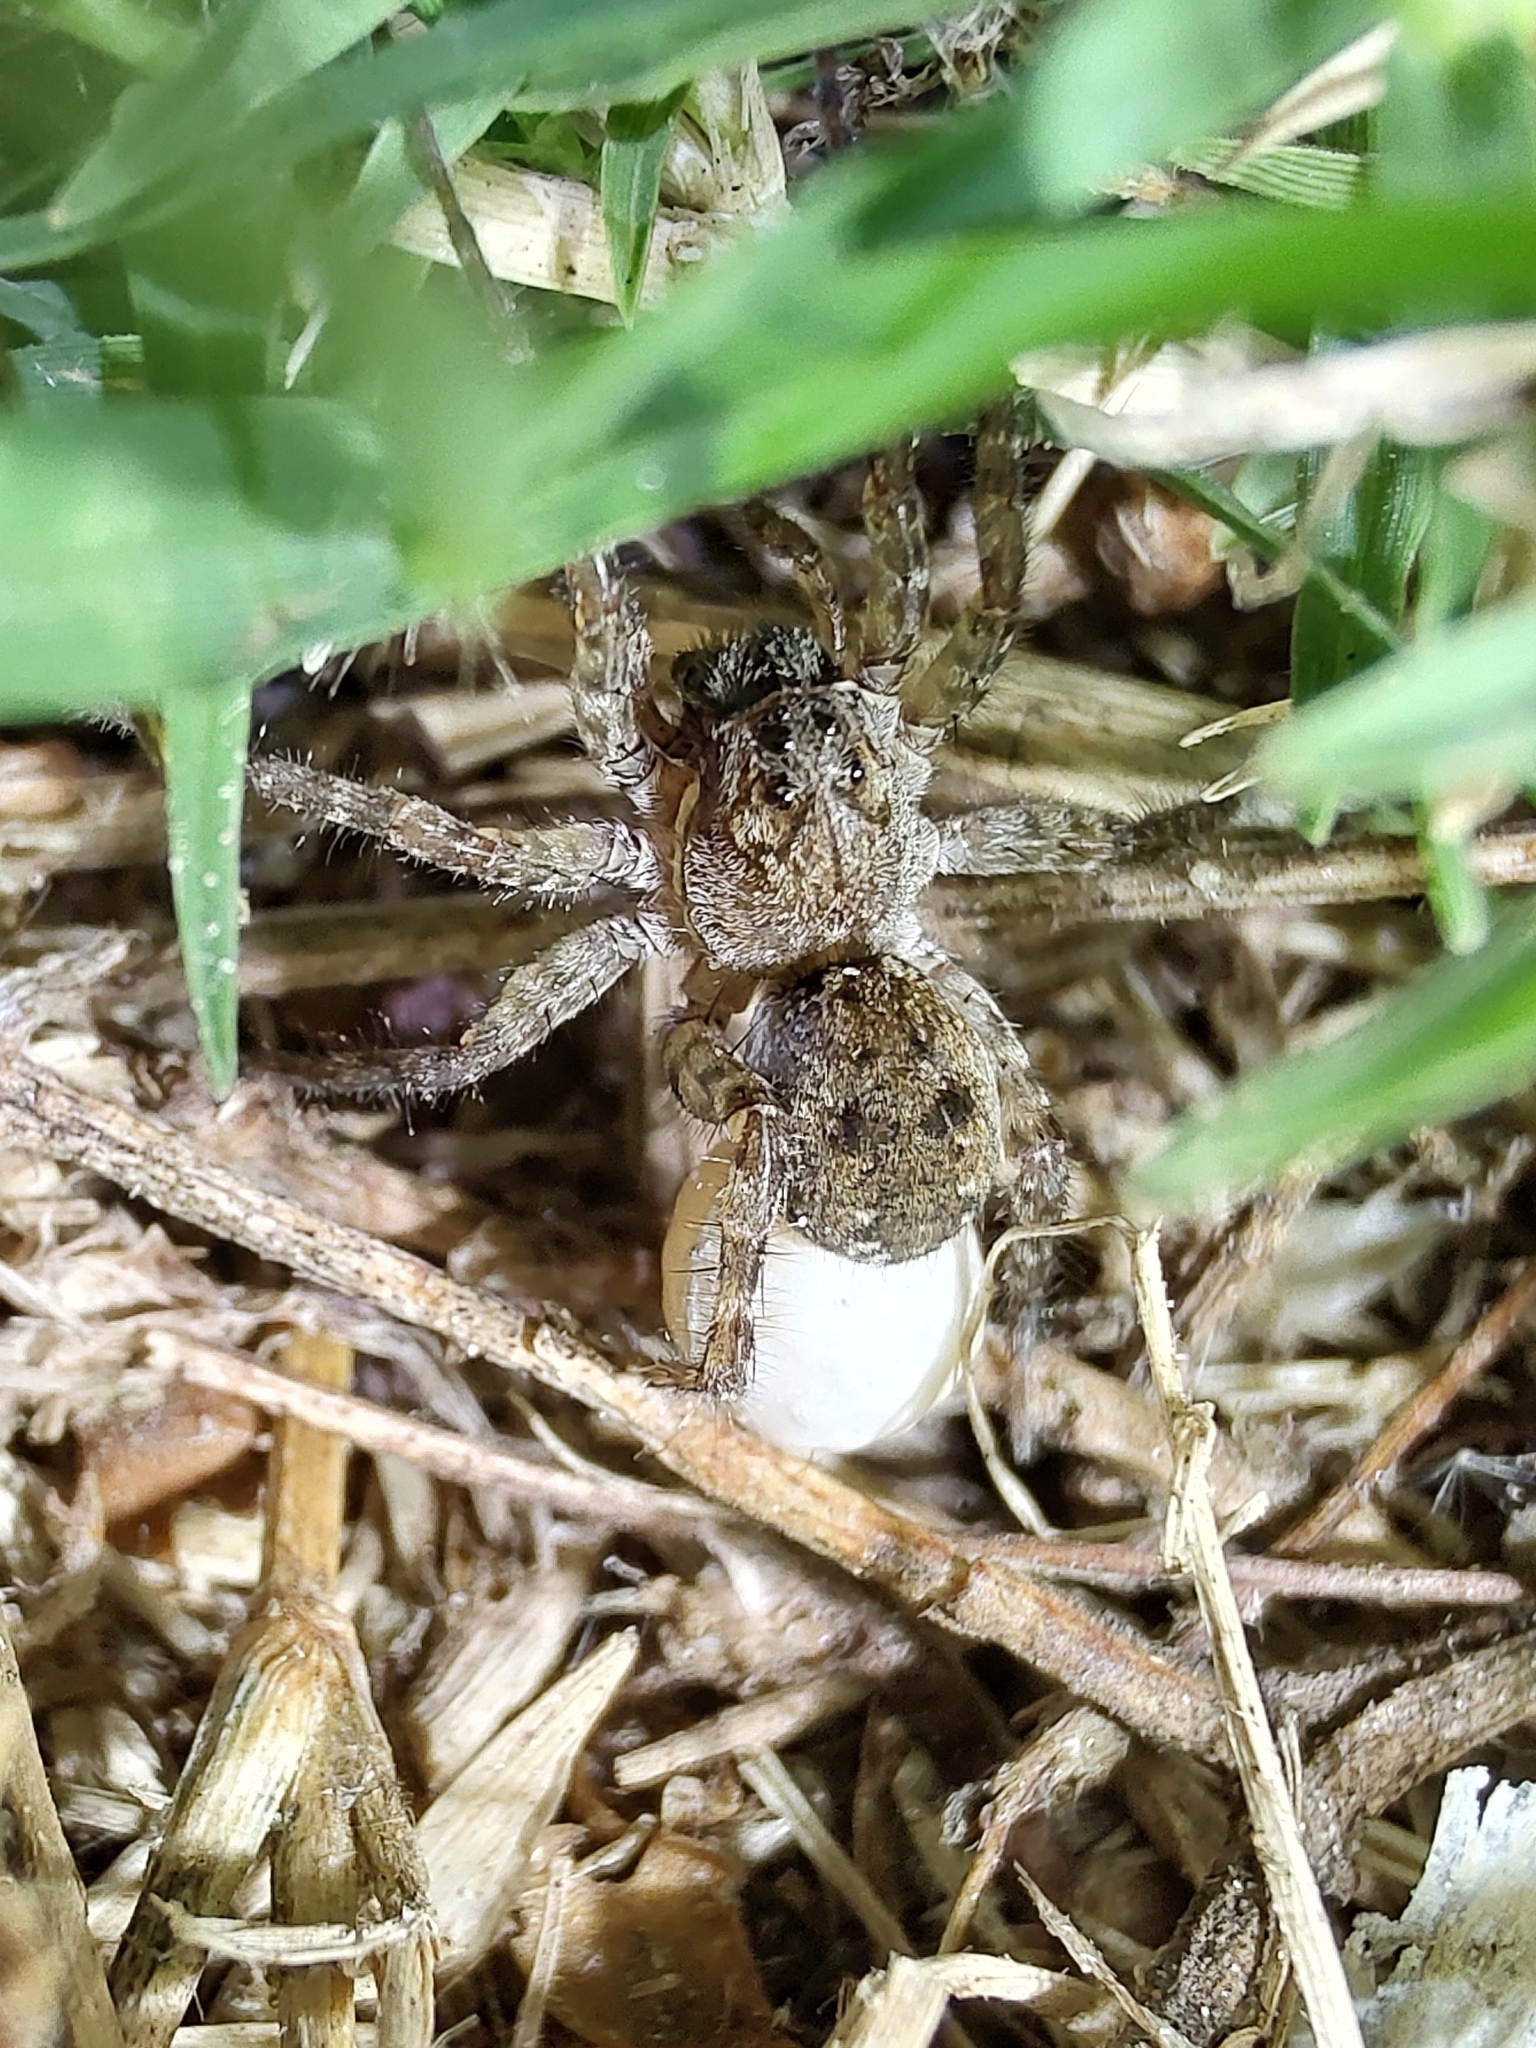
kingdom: Animalia
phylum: Arthropoda
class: Arachnida
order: Araneae
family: Lycosidae
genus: Paratrochosina
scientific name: Paratrochosina amica
